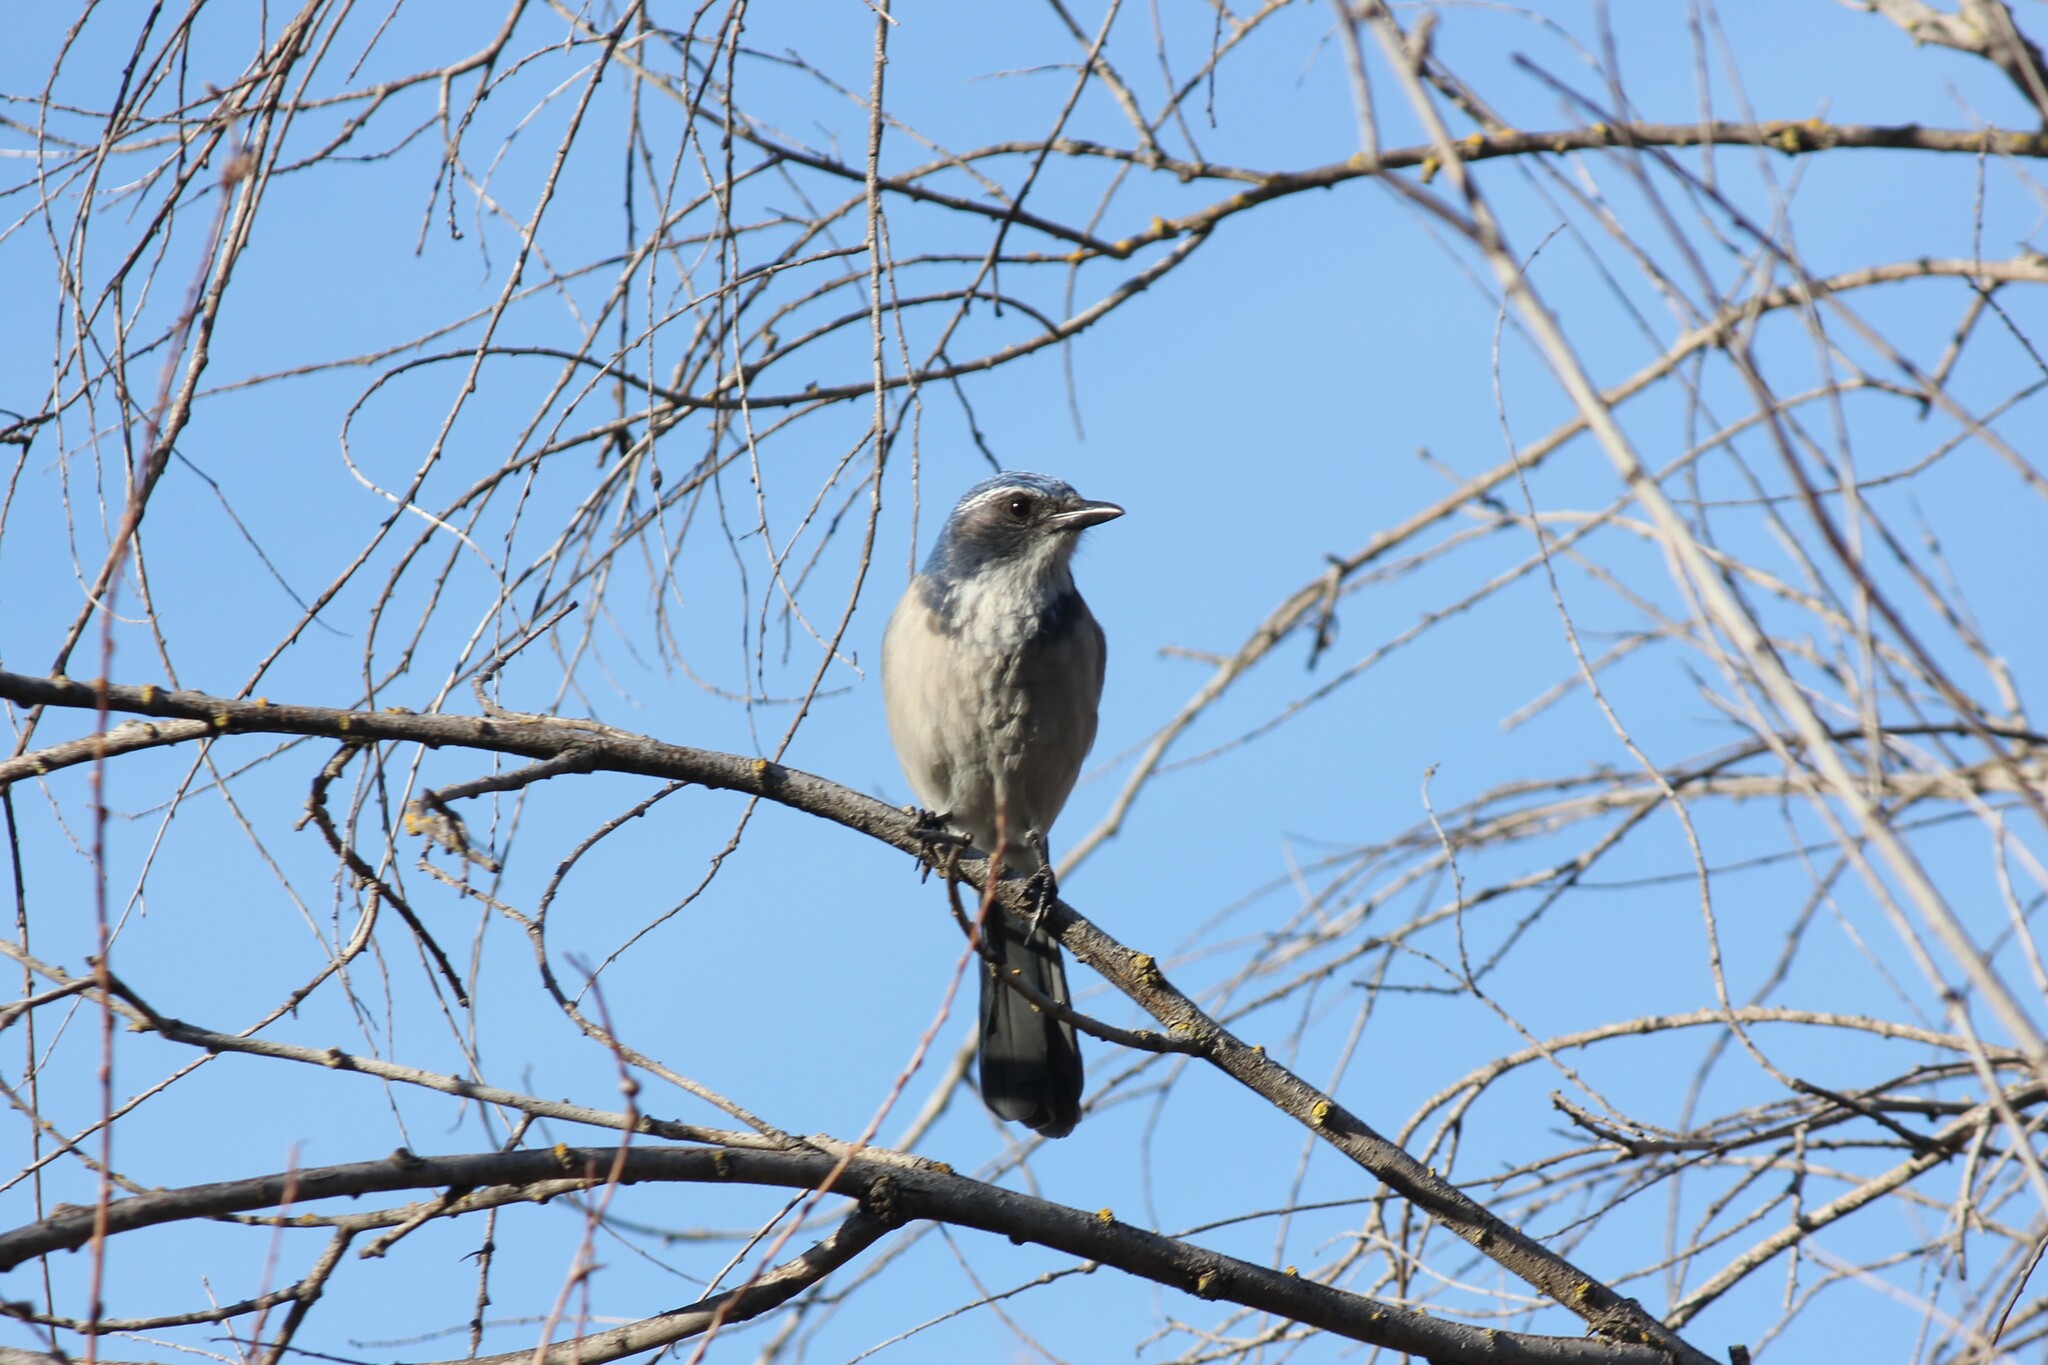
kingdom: Animalia
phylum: Chordata
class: Aves
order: Passeriformes
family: Corvidae
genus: Aphelocoma
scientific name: Aphelocoma californica
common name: California scrub-jay
